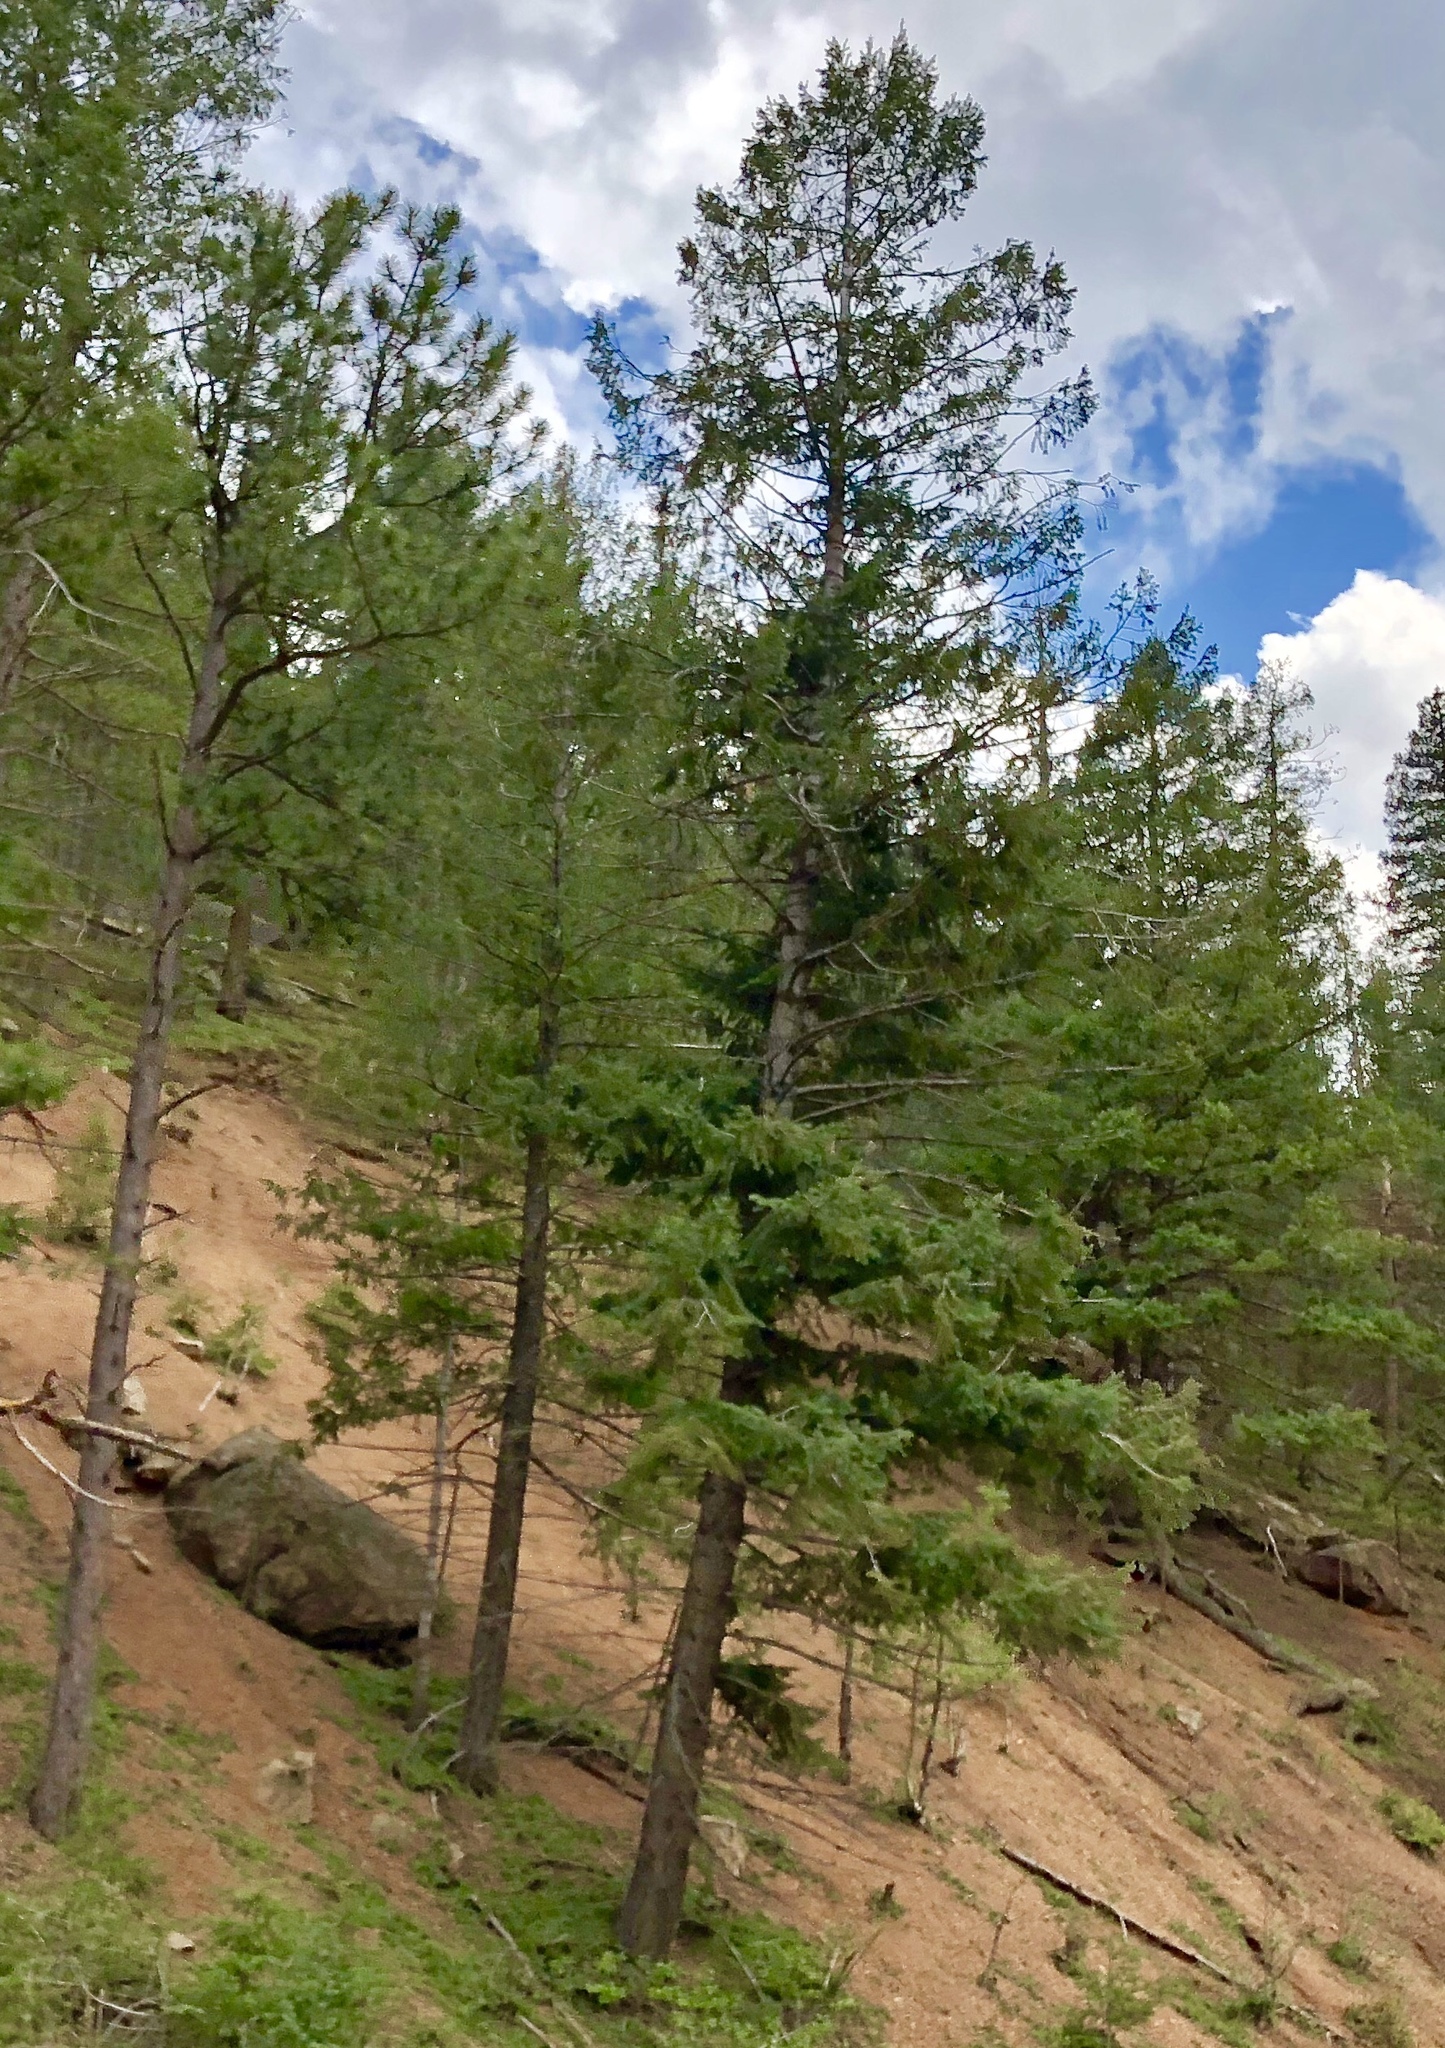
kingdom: Plantae
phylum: Tracheophyta
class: Pinopsida
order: Pinales
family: Pinaceae
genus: Pseudotsuga
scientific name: Pseudotsuga menziesii
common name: Douglas fir
